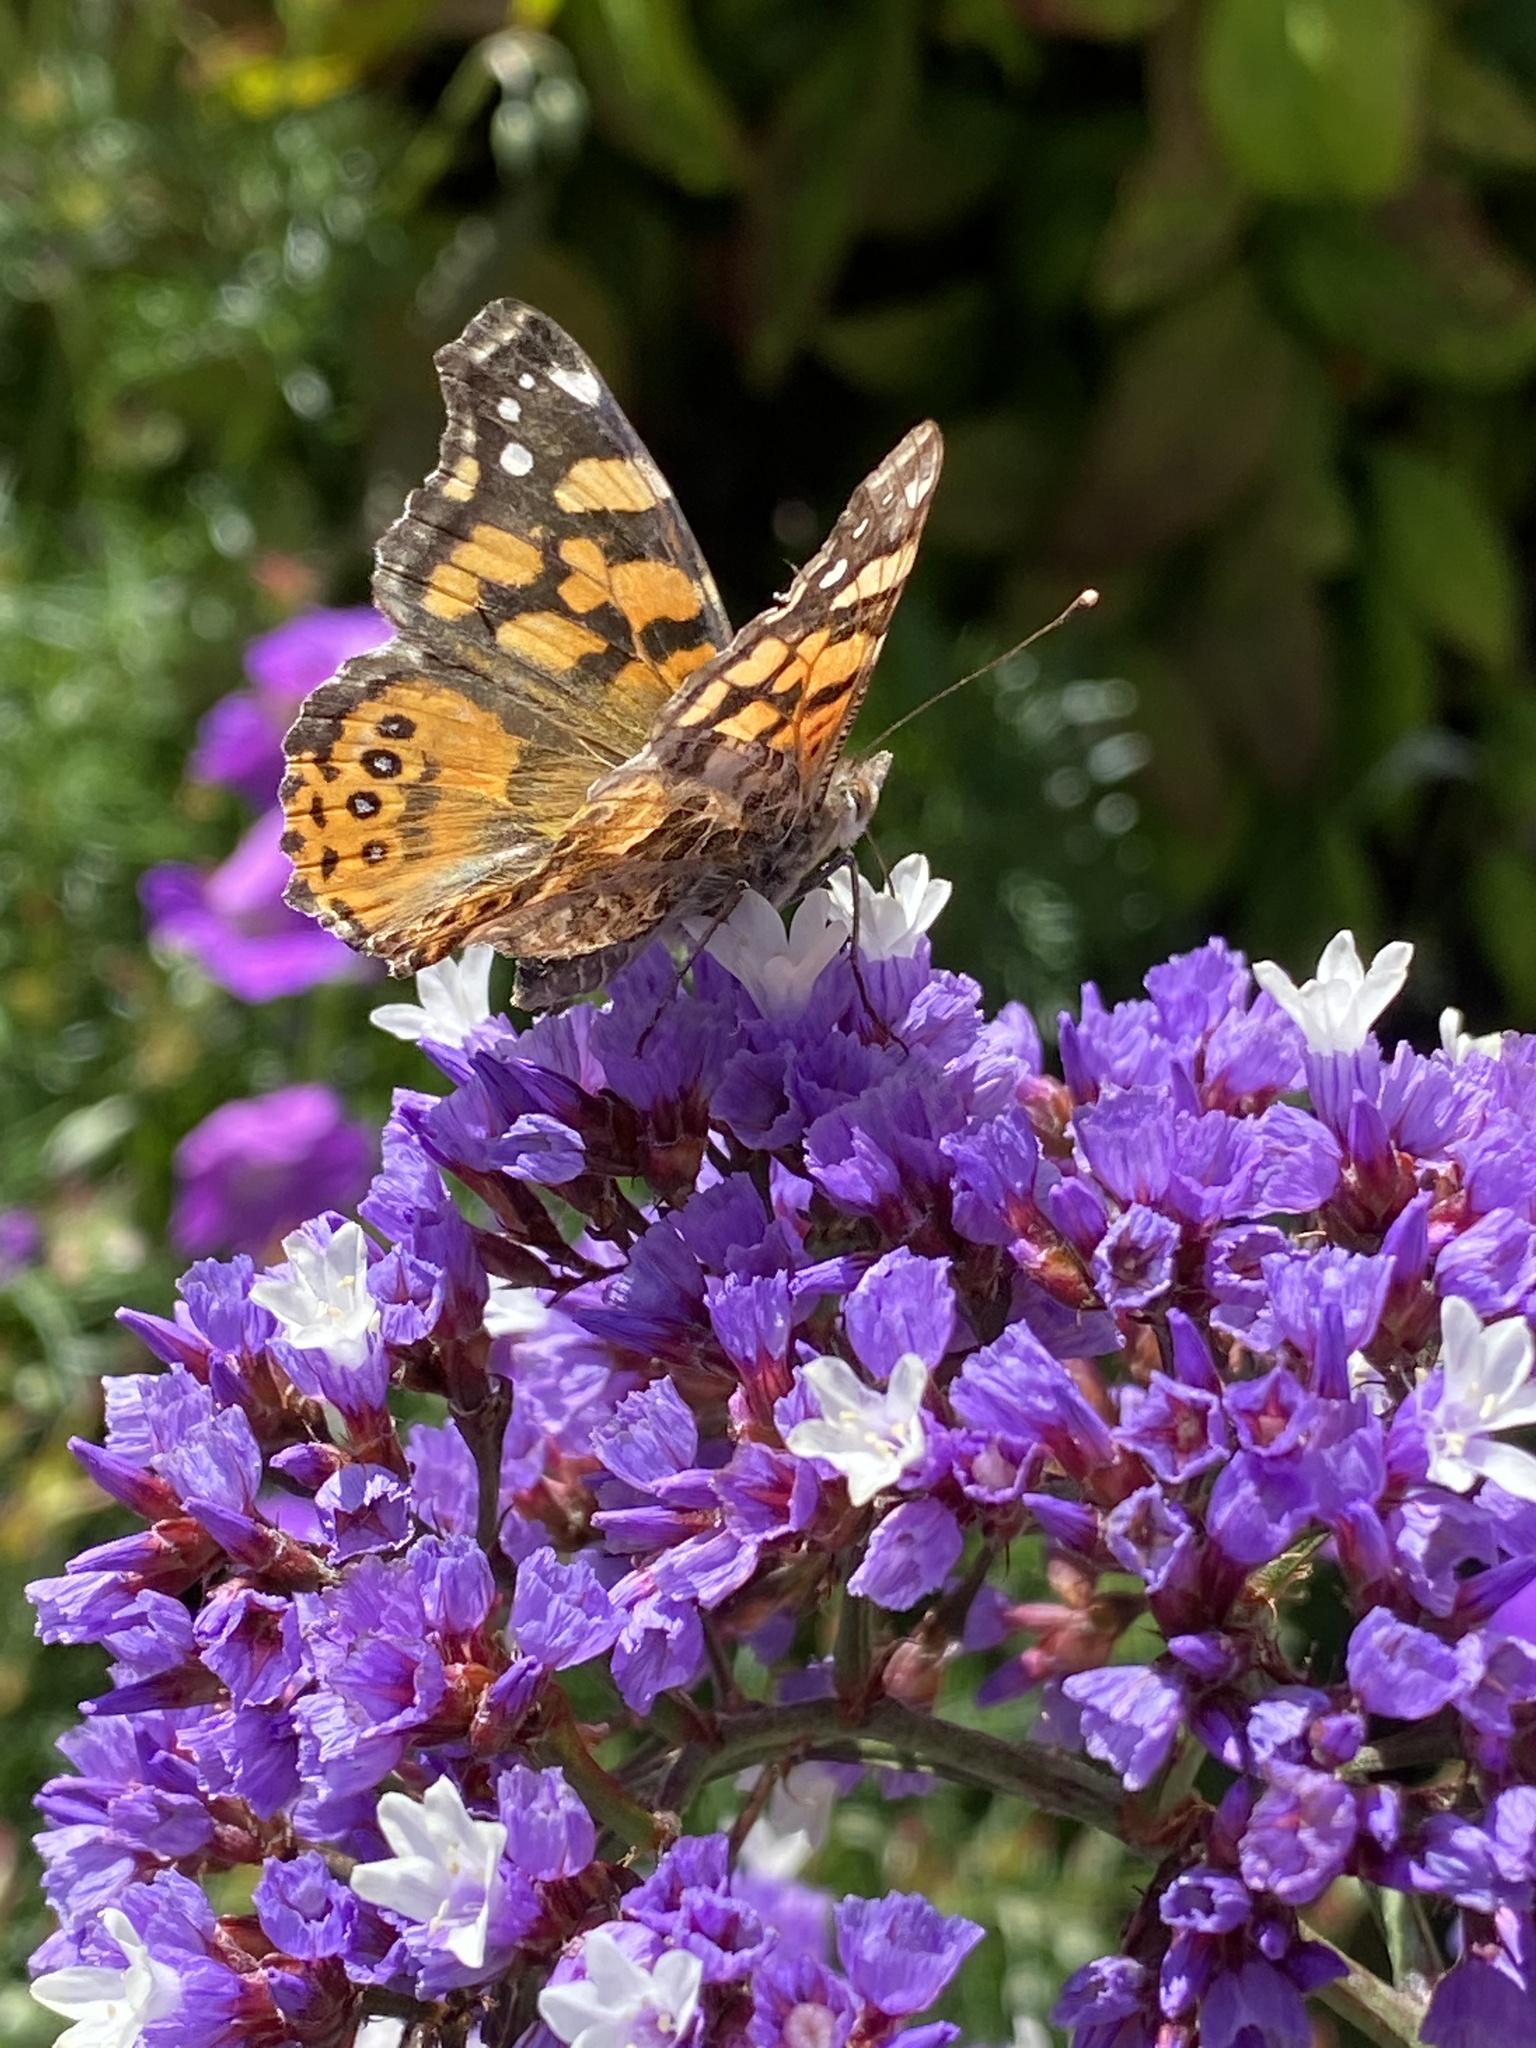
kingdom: Animalia
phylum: Arthropoda
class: Insecta
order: Lepidoptera
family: Nymphalidae
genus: Vanessa
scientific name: Vanessa annabella
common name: West coast lady
